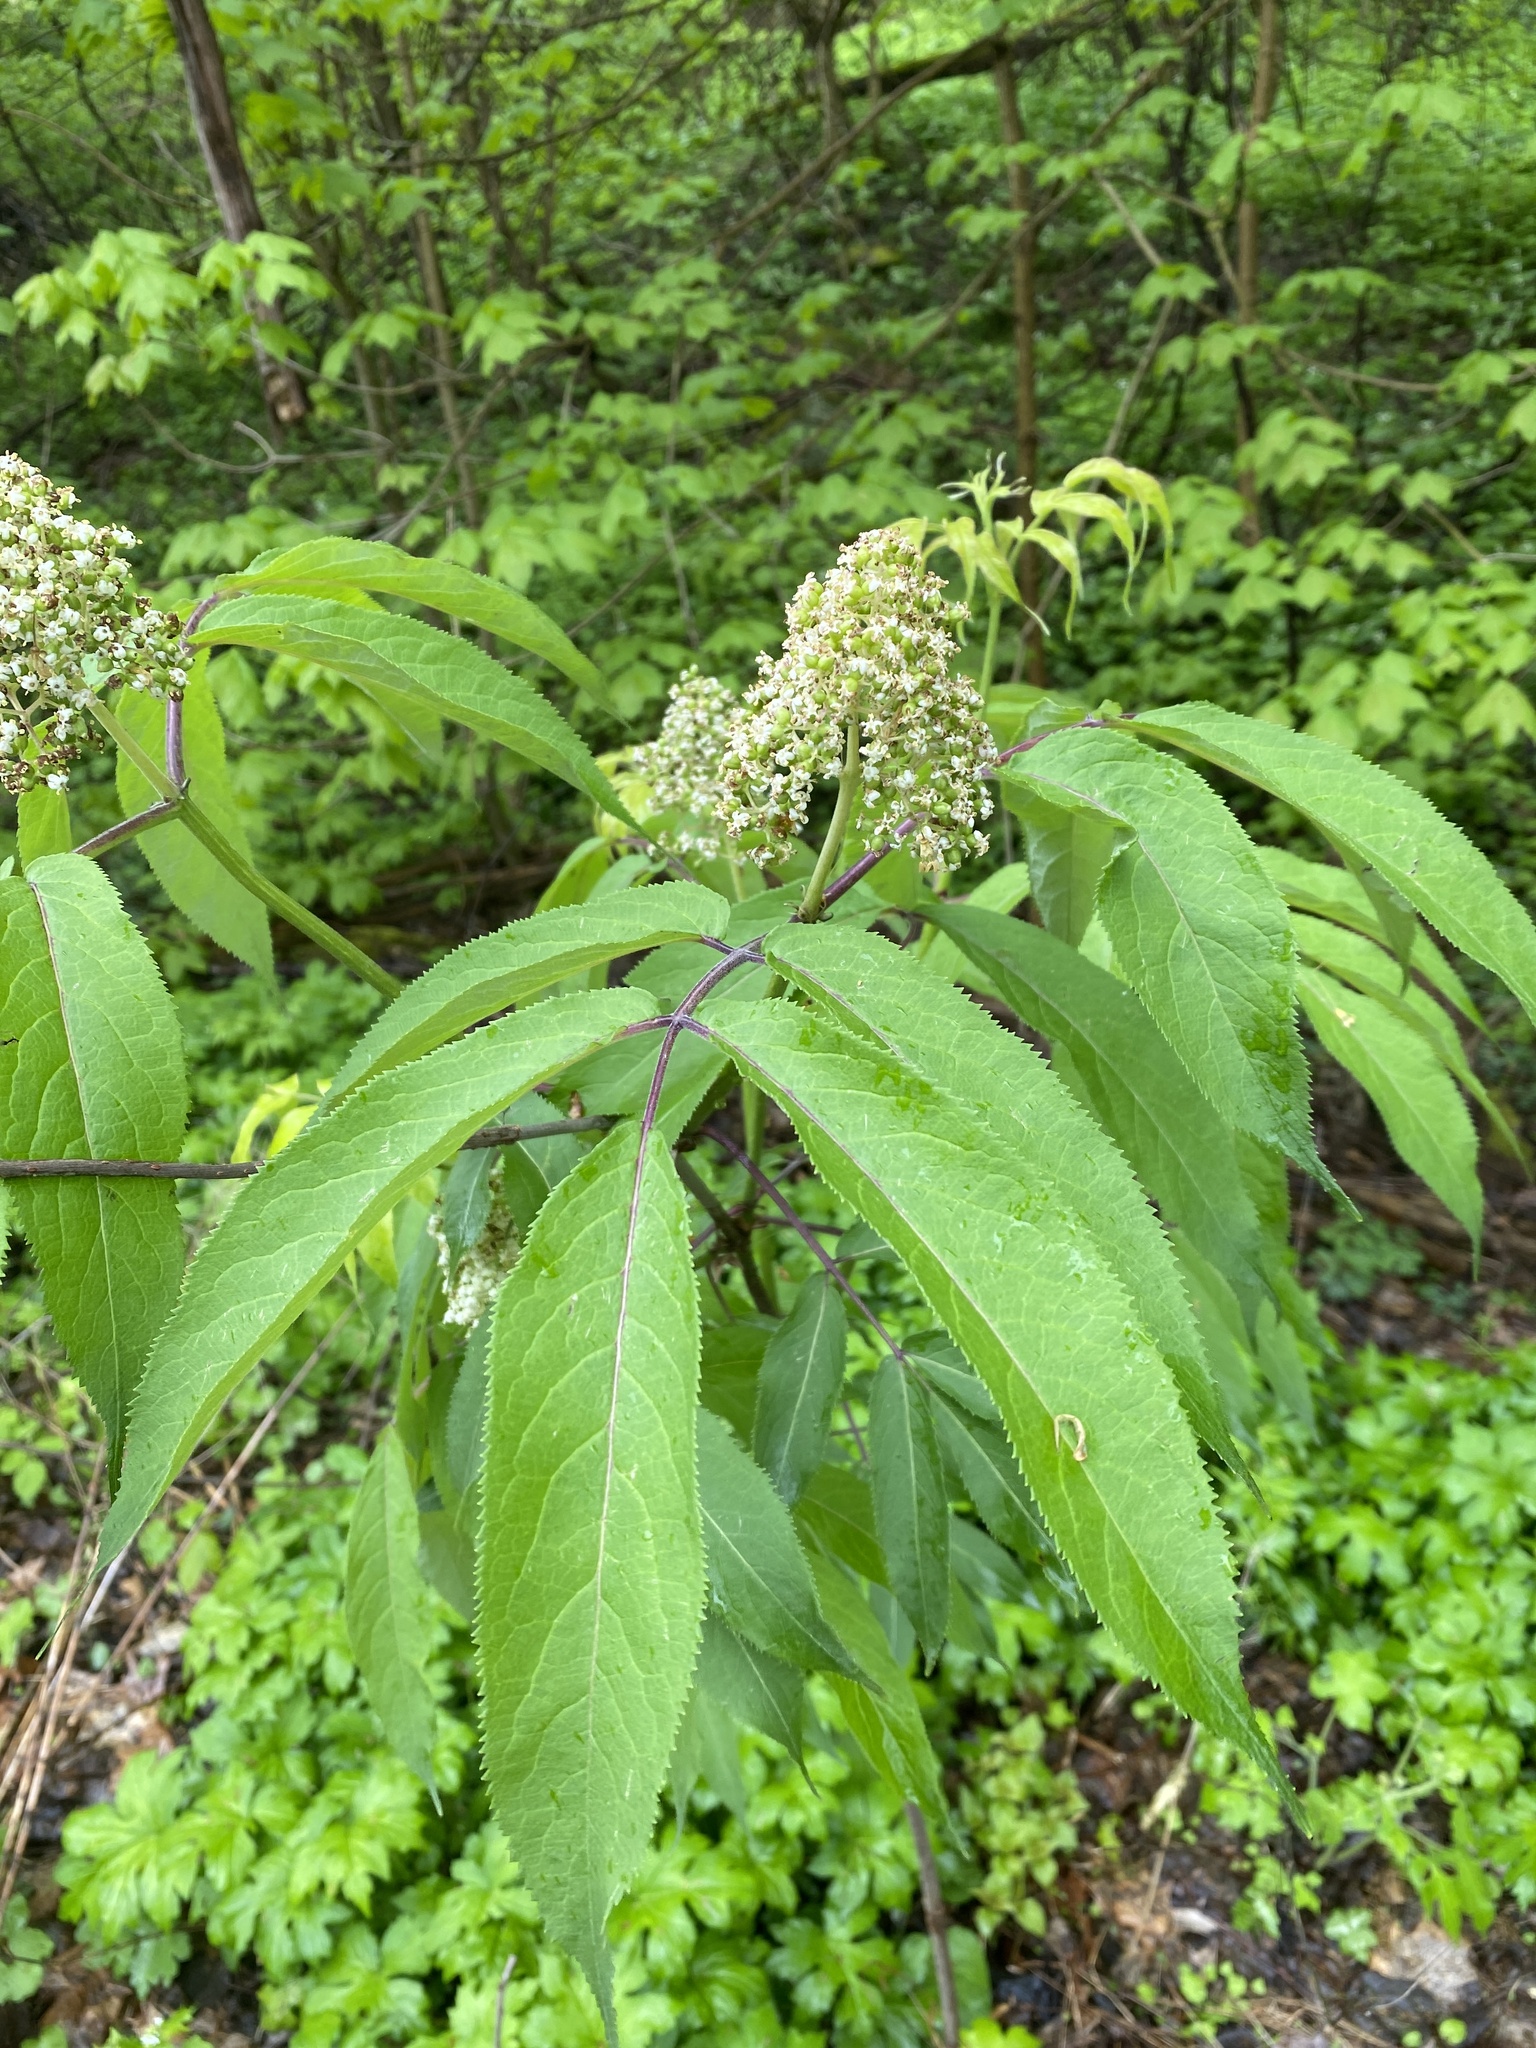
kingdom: Plantae
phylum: Tracheophyta
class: Magnoliopsida
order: Dipsacales
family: Viburnaceae
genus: Sambucus
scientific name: Sambucus racemosa
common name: Red-berried elder
